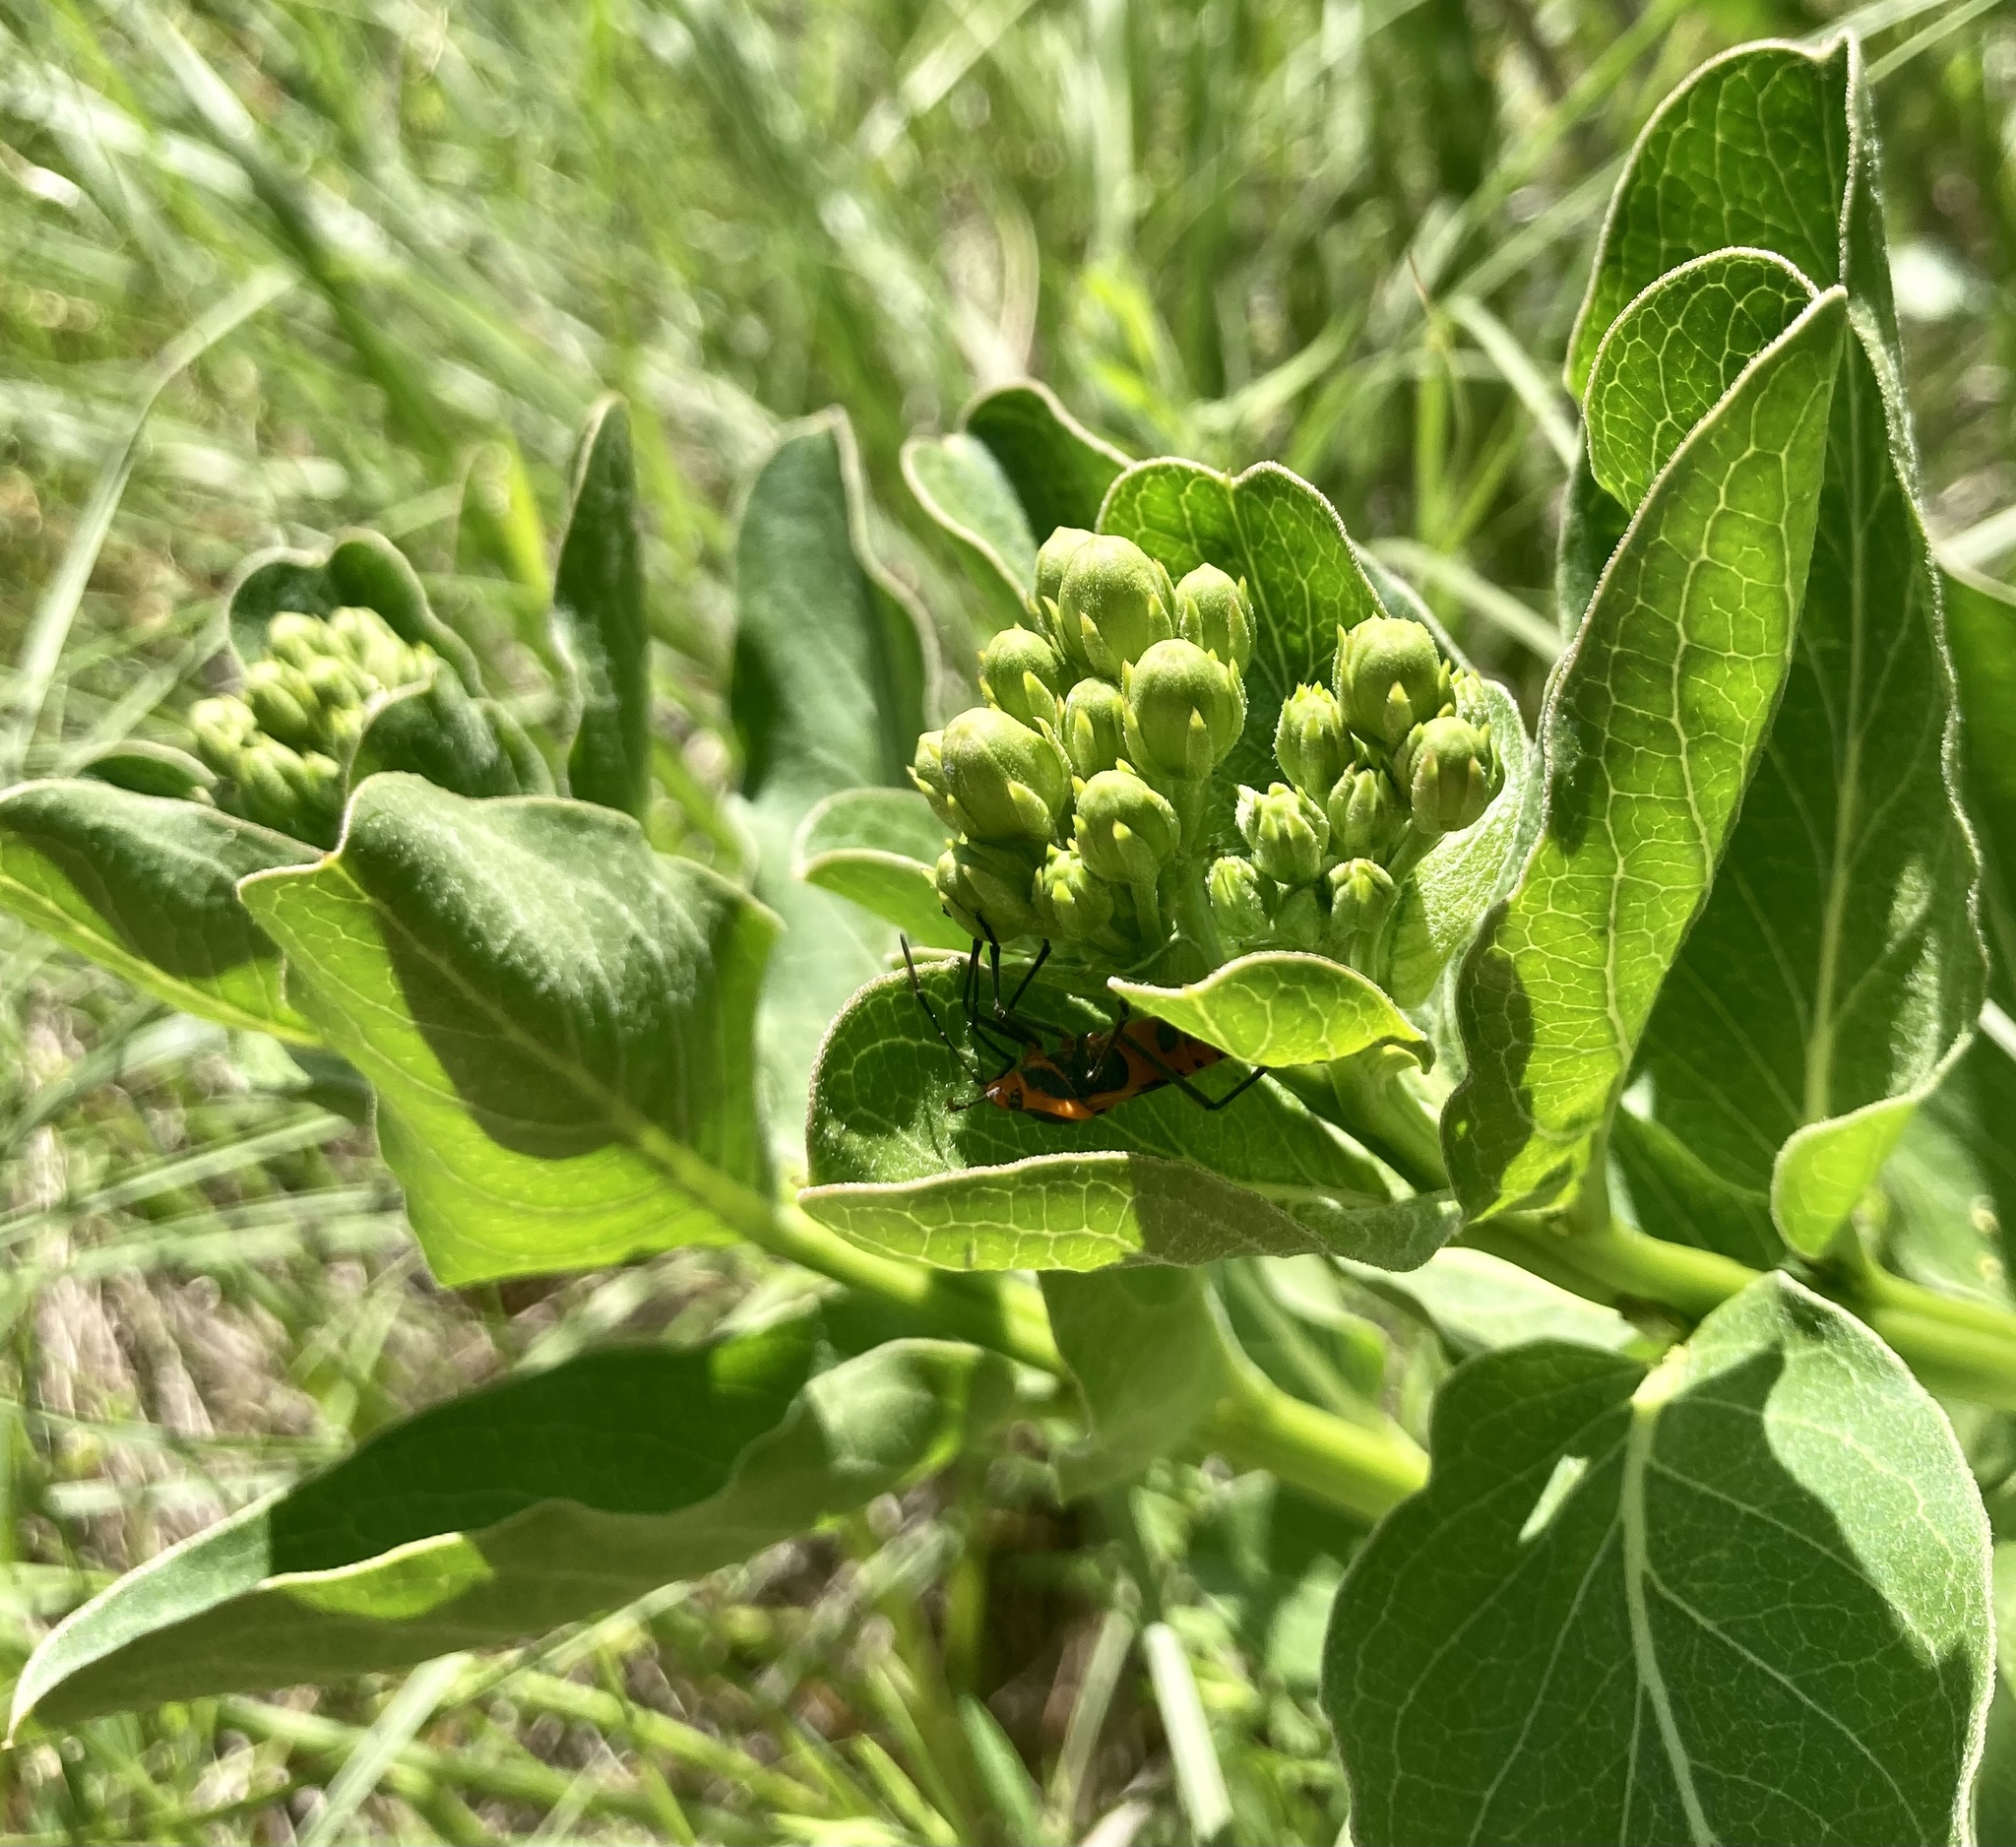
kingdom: Plantae
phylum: Tracheophyta
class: Magnoliopsida
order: Gentianales
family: Apocynaceae
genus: Asclepias
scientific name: Asclepias viridis
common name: Antelope-horns
